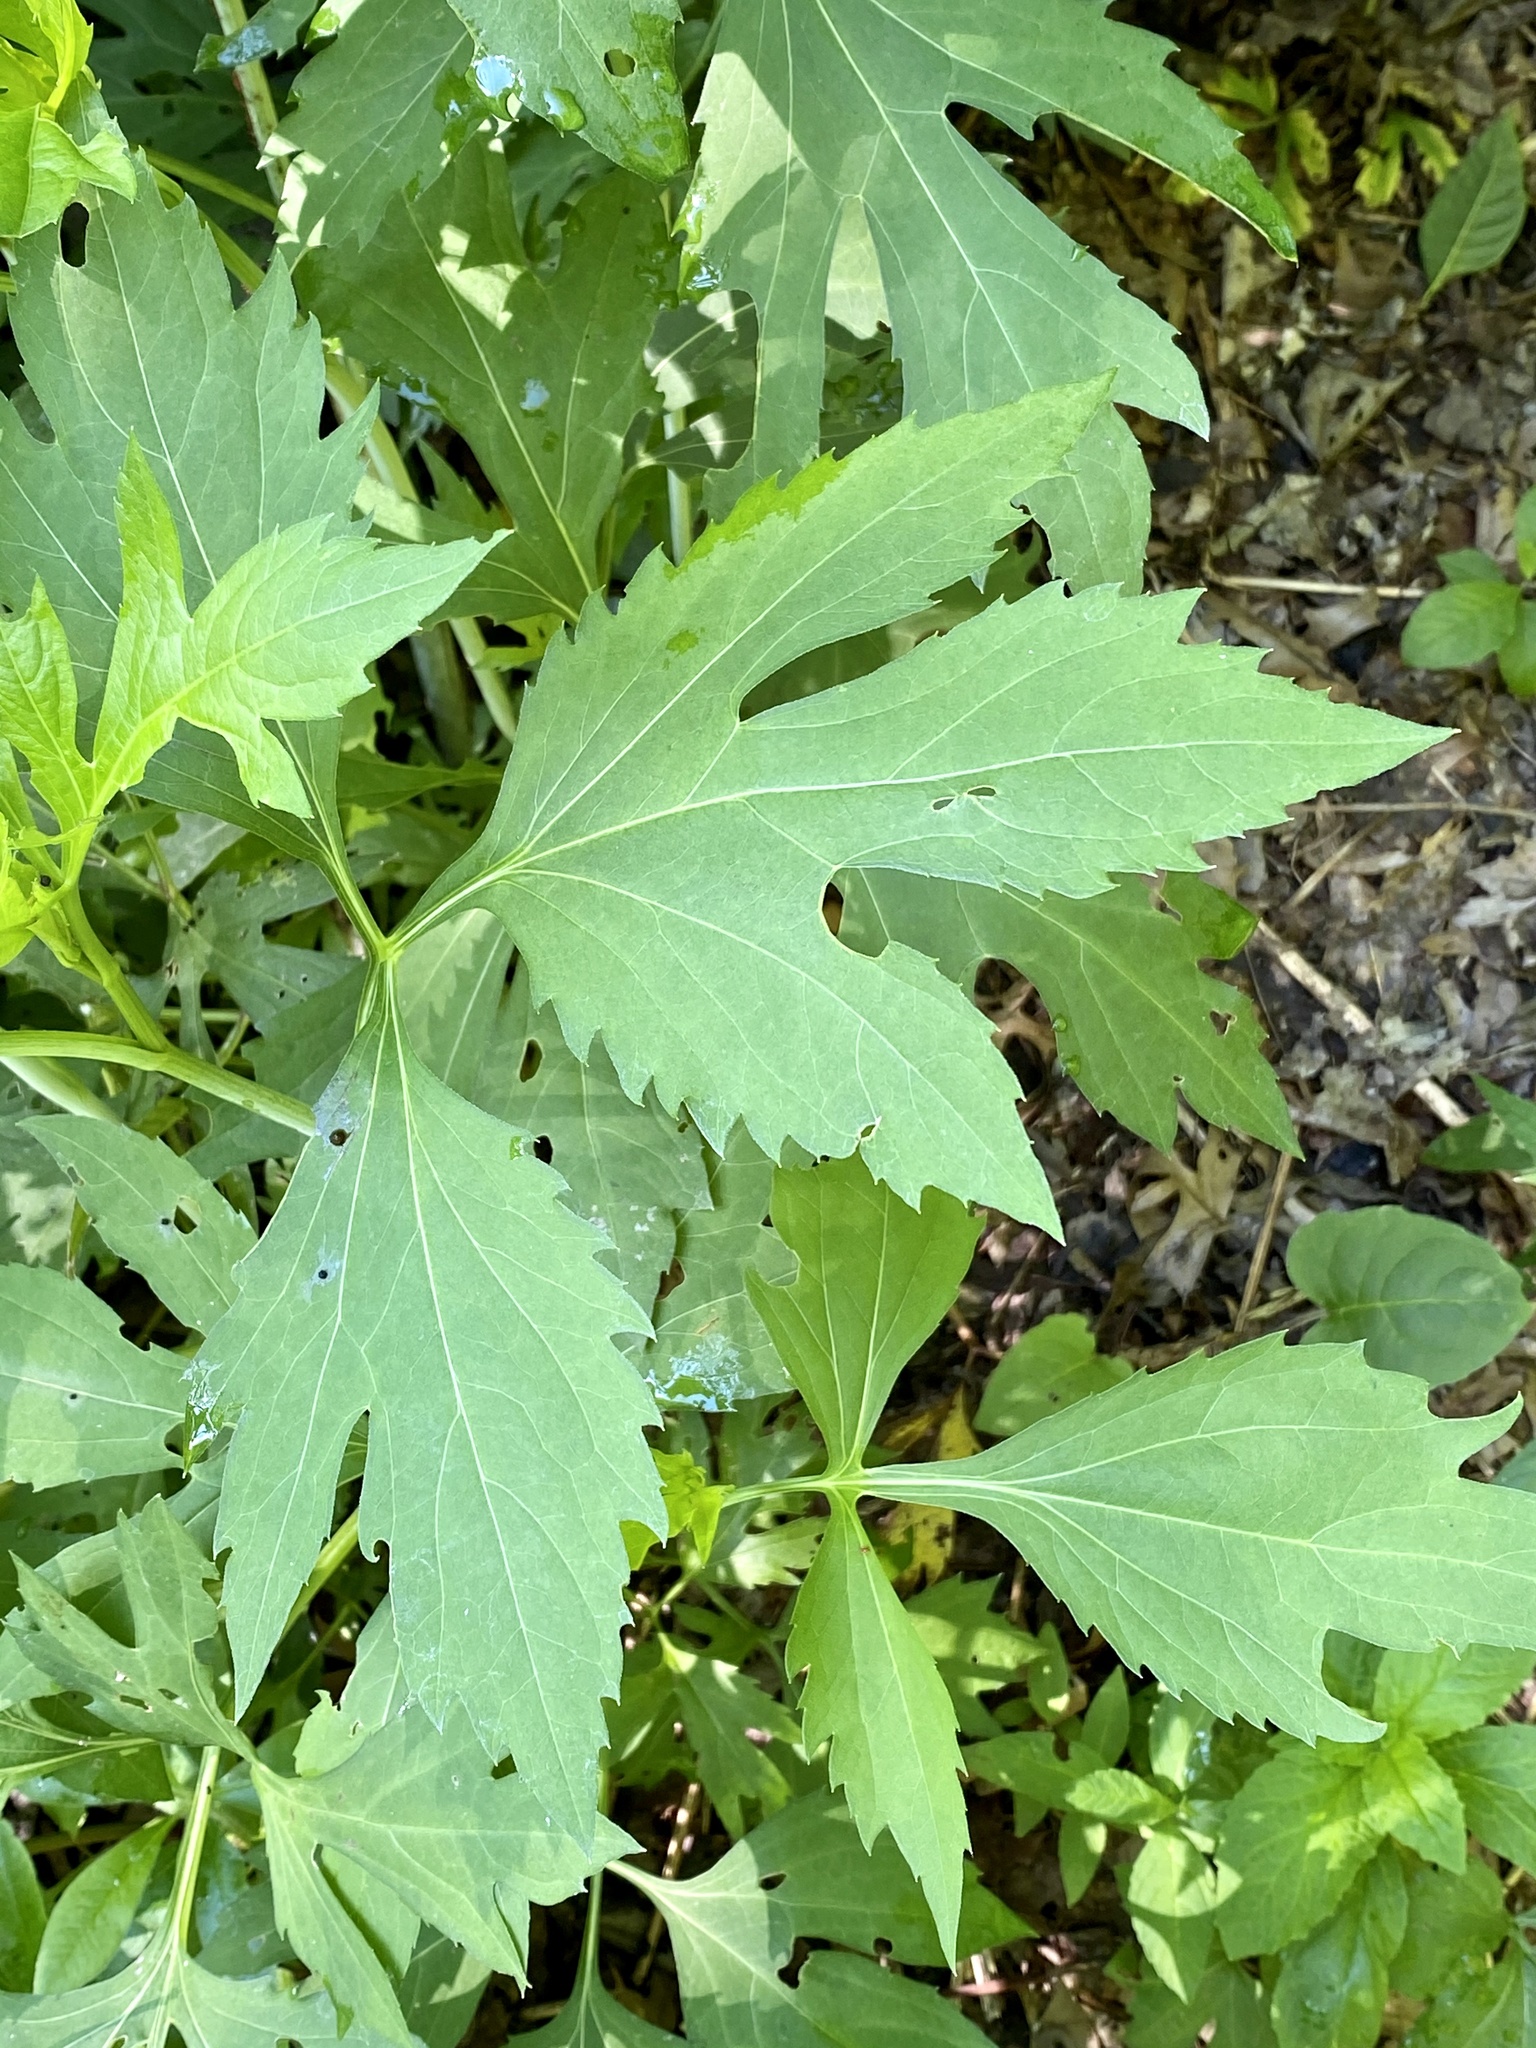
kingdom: Plantae
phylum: Tracheophyta
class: Magnoliopsida
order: Asterales
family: Asteraceae
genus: Rudbeckia
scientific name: Rudbeckia laciniata
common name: Coneflower
